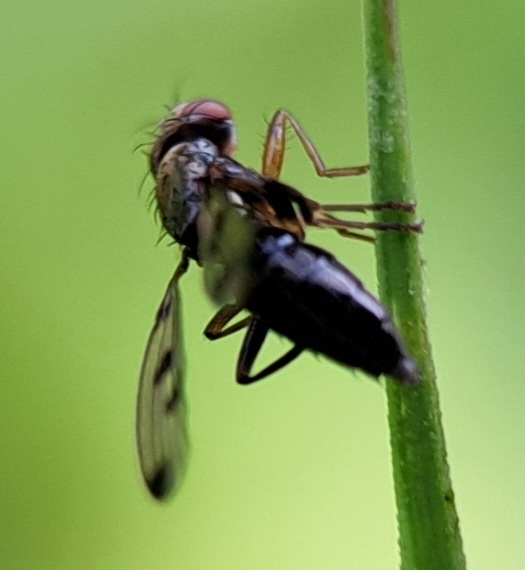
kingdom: Animalia
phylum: Arthropoda
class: Insecta
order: Diptera
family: Opomyzidae
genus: Geomyza
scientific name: Geomyza tripunctata
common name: Cereal fly
